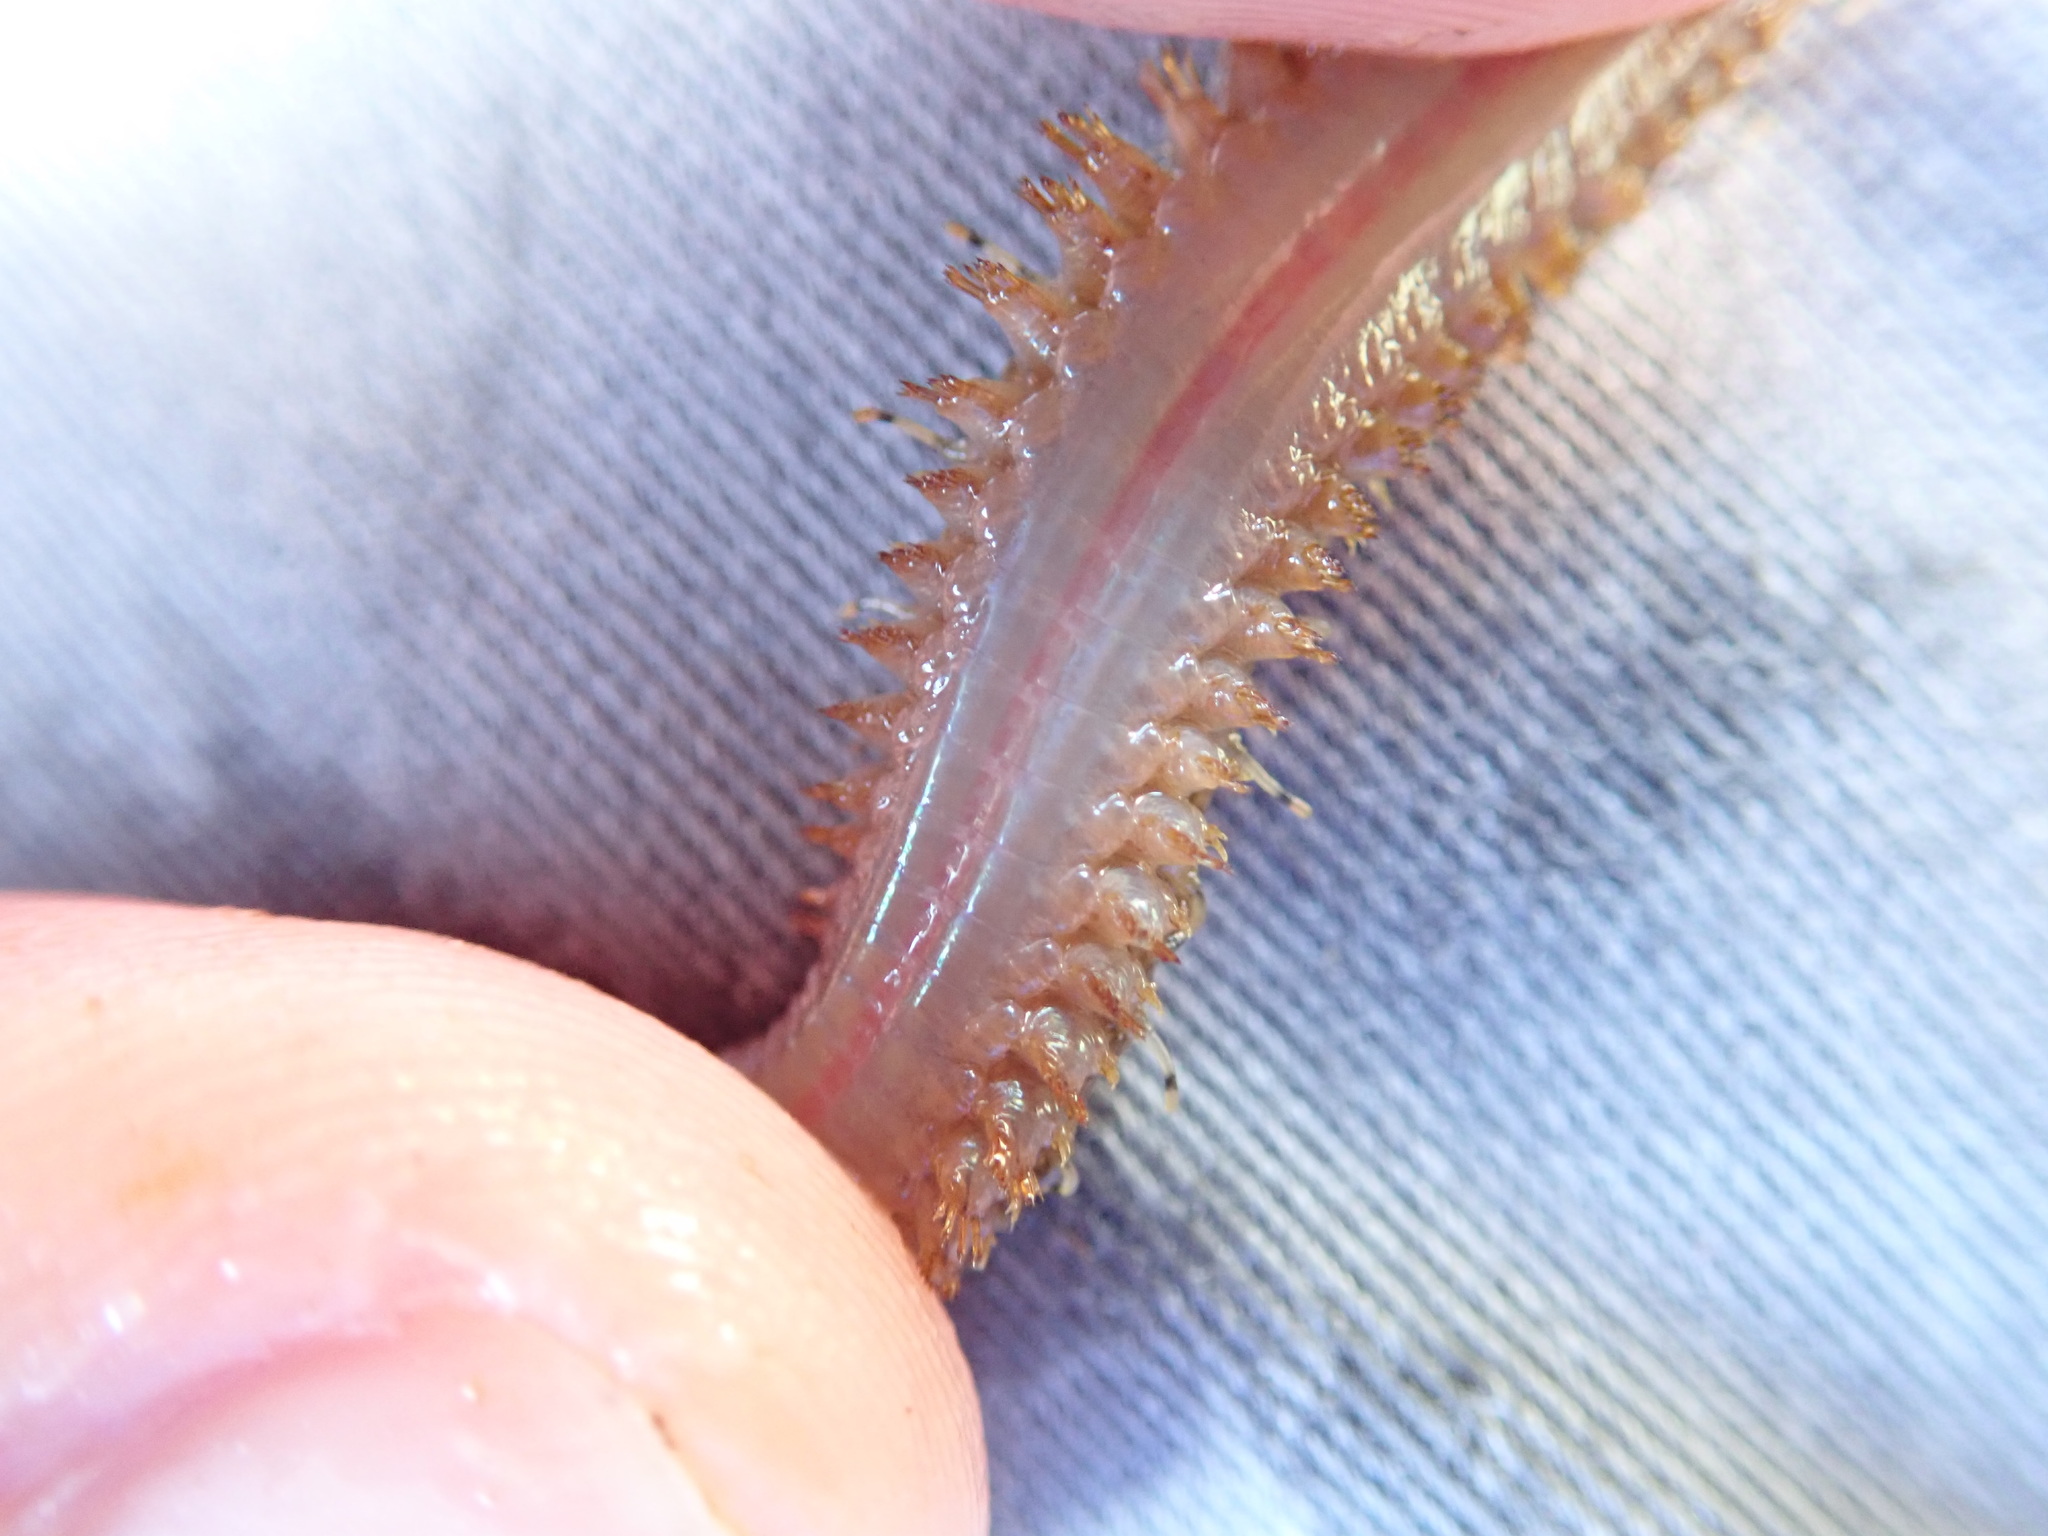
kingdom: Animalia
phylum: Annelida
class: Polychaeta
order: Phyllodocida
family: Polynoidae
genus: Halosydna
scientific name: Halosydna brevisetosa
